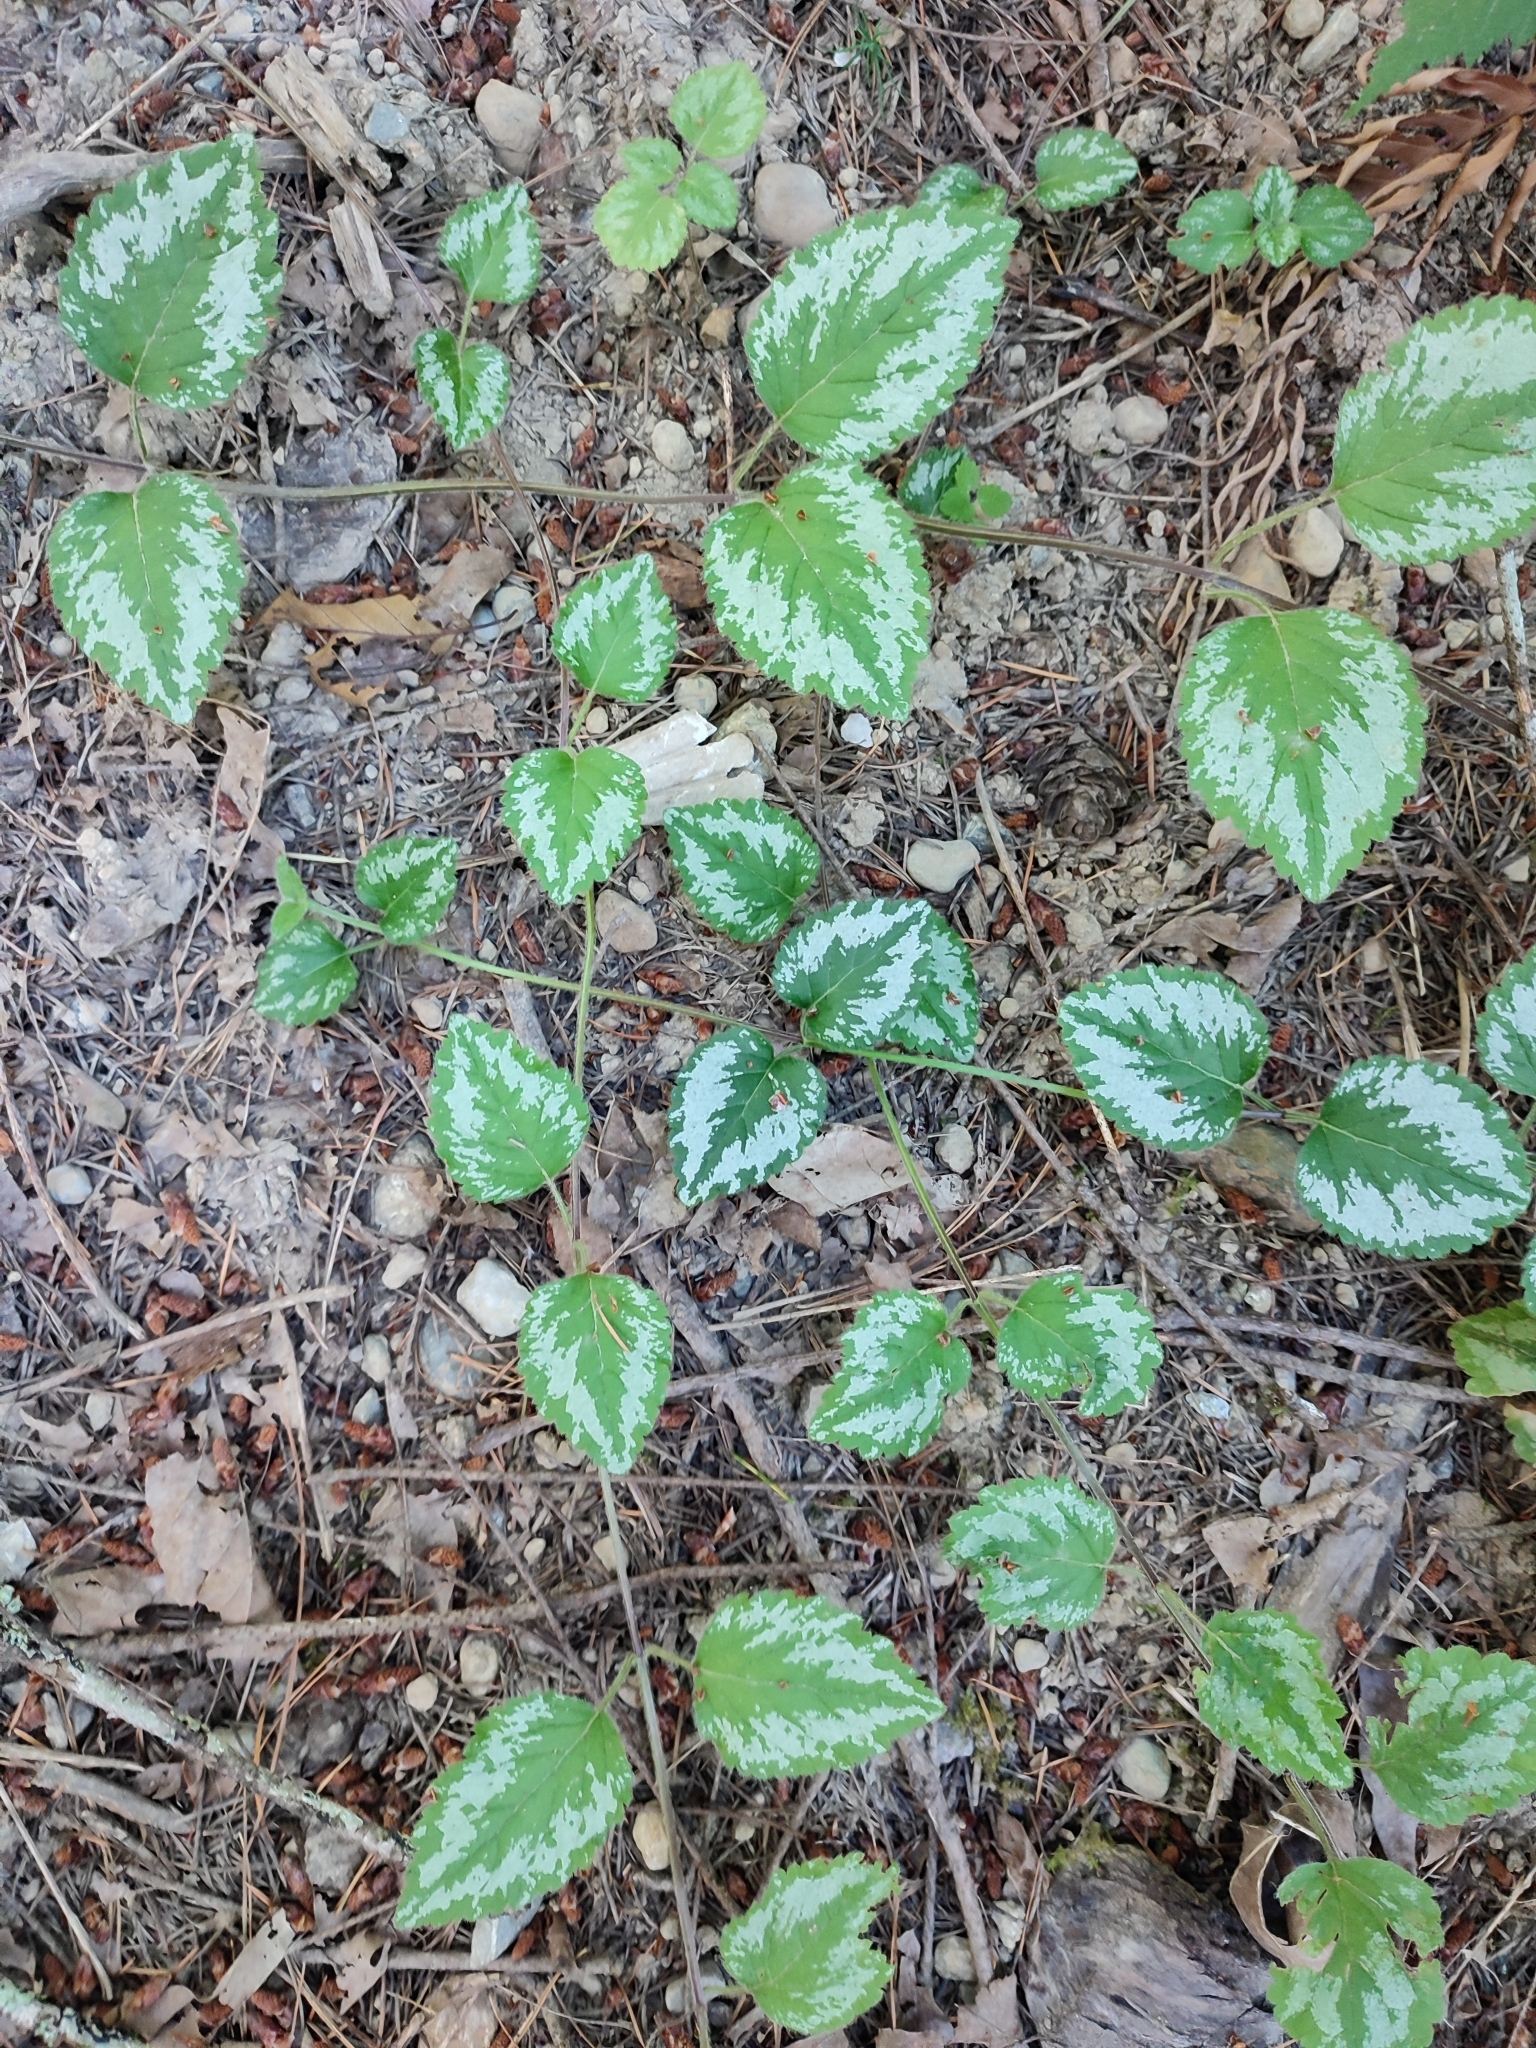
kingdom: Plantae
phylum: Tracheophyta
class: Magnoliopsida
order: Lamiales
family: Lamiaceae
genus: Lamium
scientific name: Lamium galeobdolon
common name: Yellow archangel
